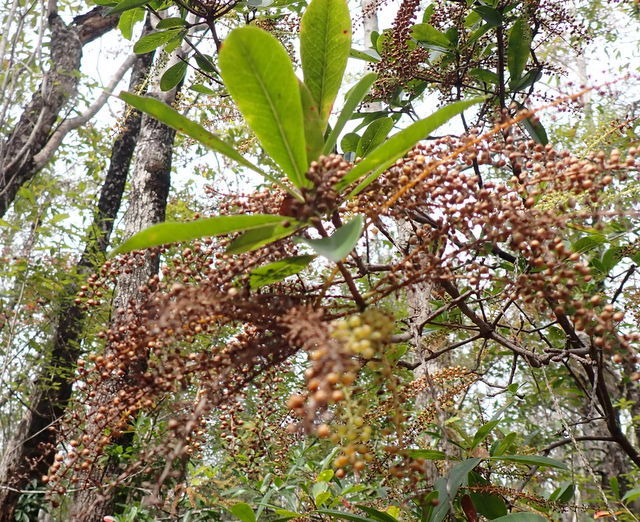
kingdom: Plantae
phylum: Tracheophyta
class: Magnoliopsida
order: Ericales
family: Cyrillaceae
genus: Cyrilla
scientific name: Cyrilla racemiflora
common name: Black titi
